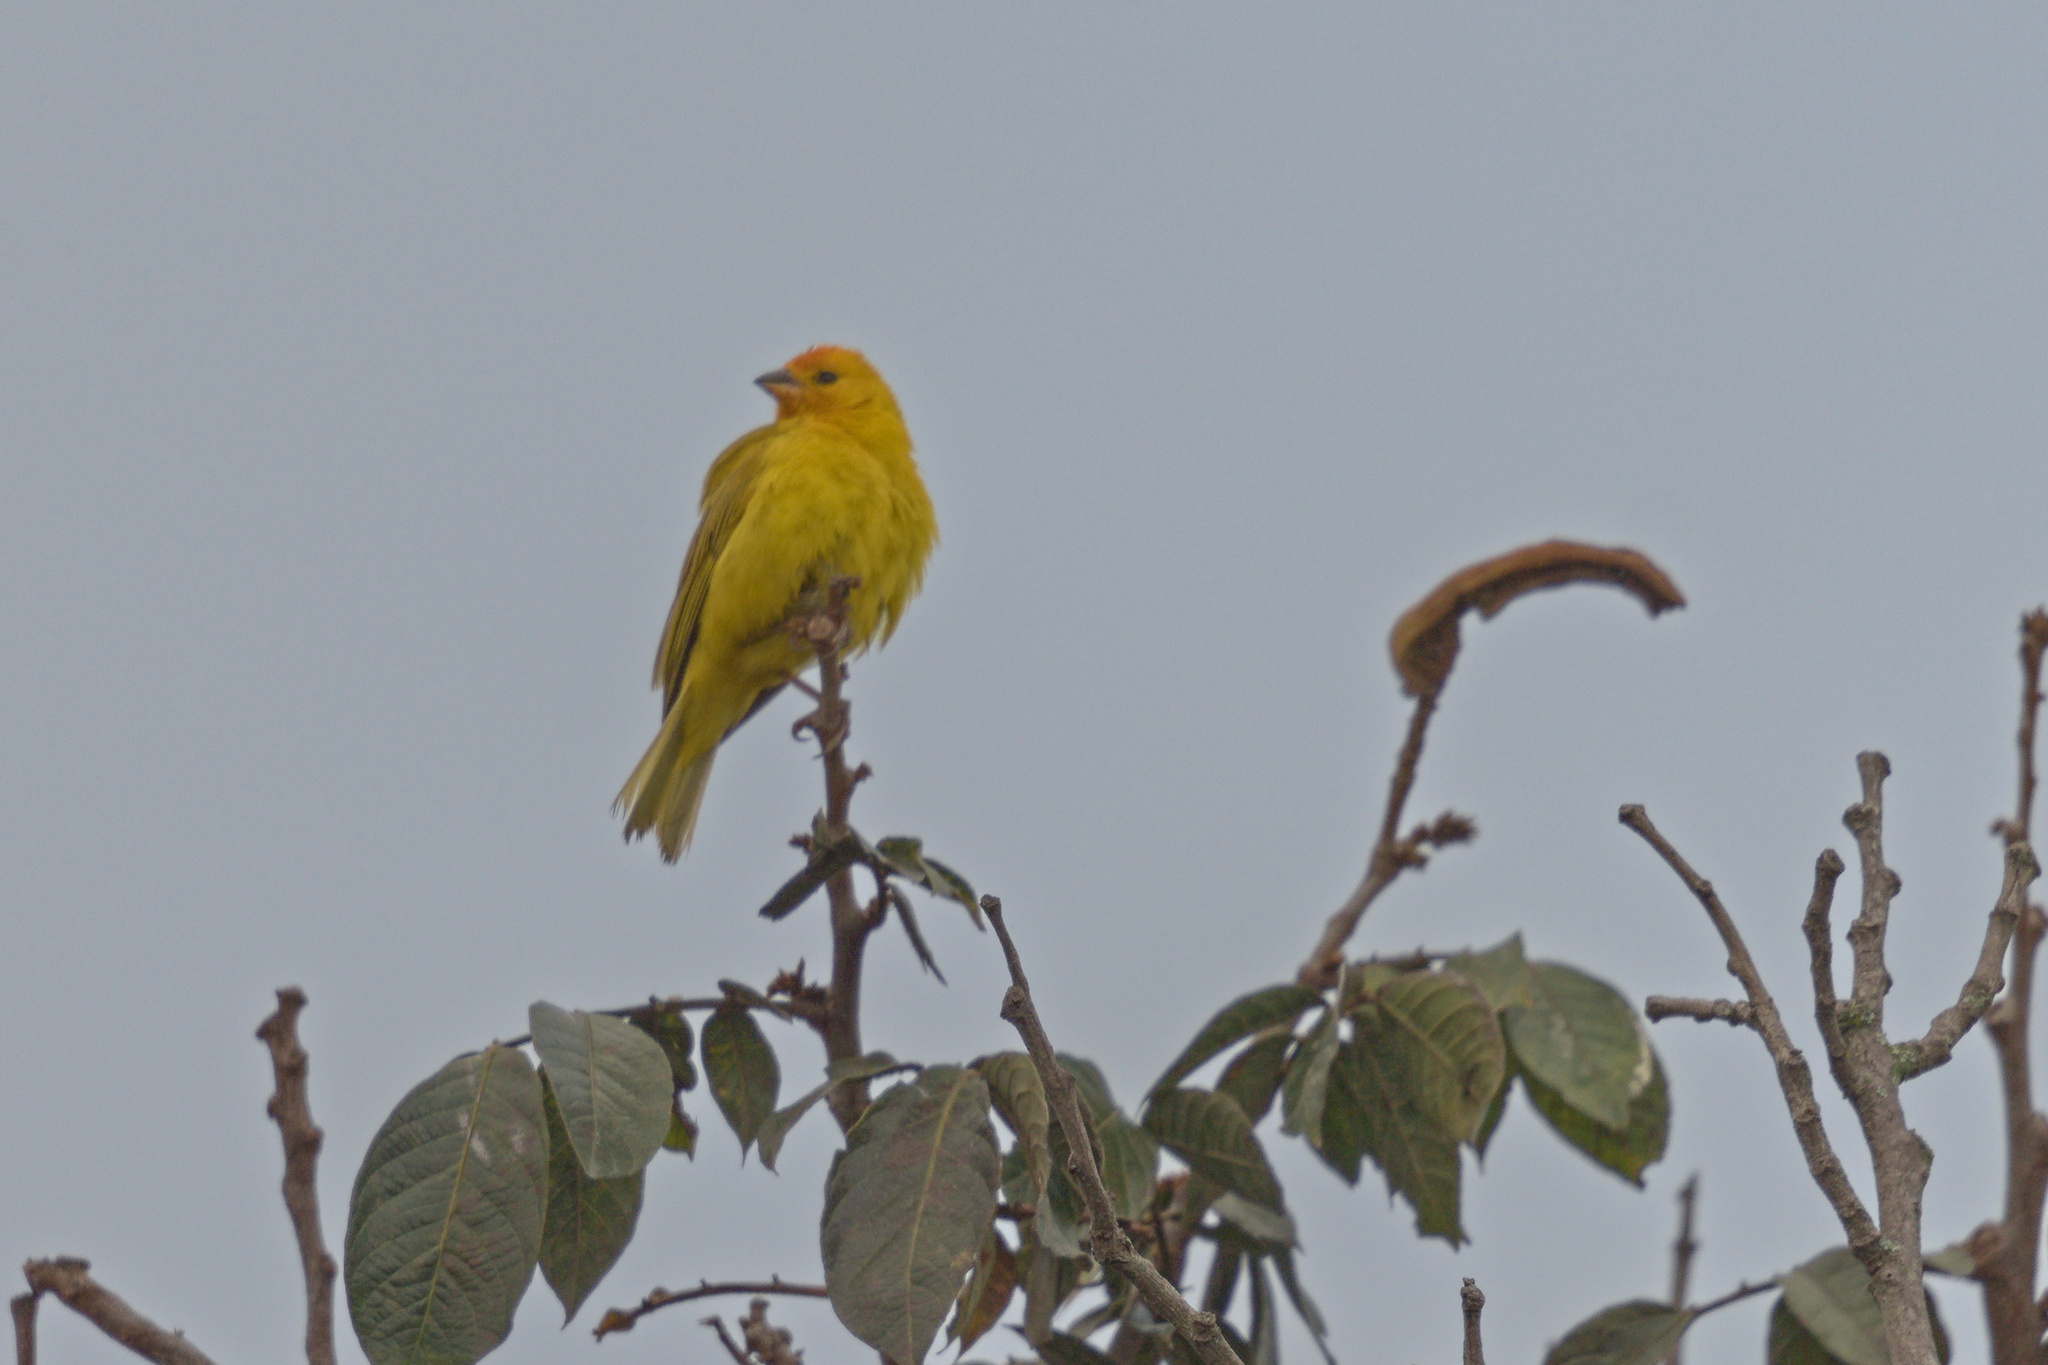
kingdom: Animalia
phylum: Chordata
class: Aves
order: Passeriformes
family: Thraupidae
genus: Sicalis
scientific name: Sicalis flaveola
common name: Saffron finch
